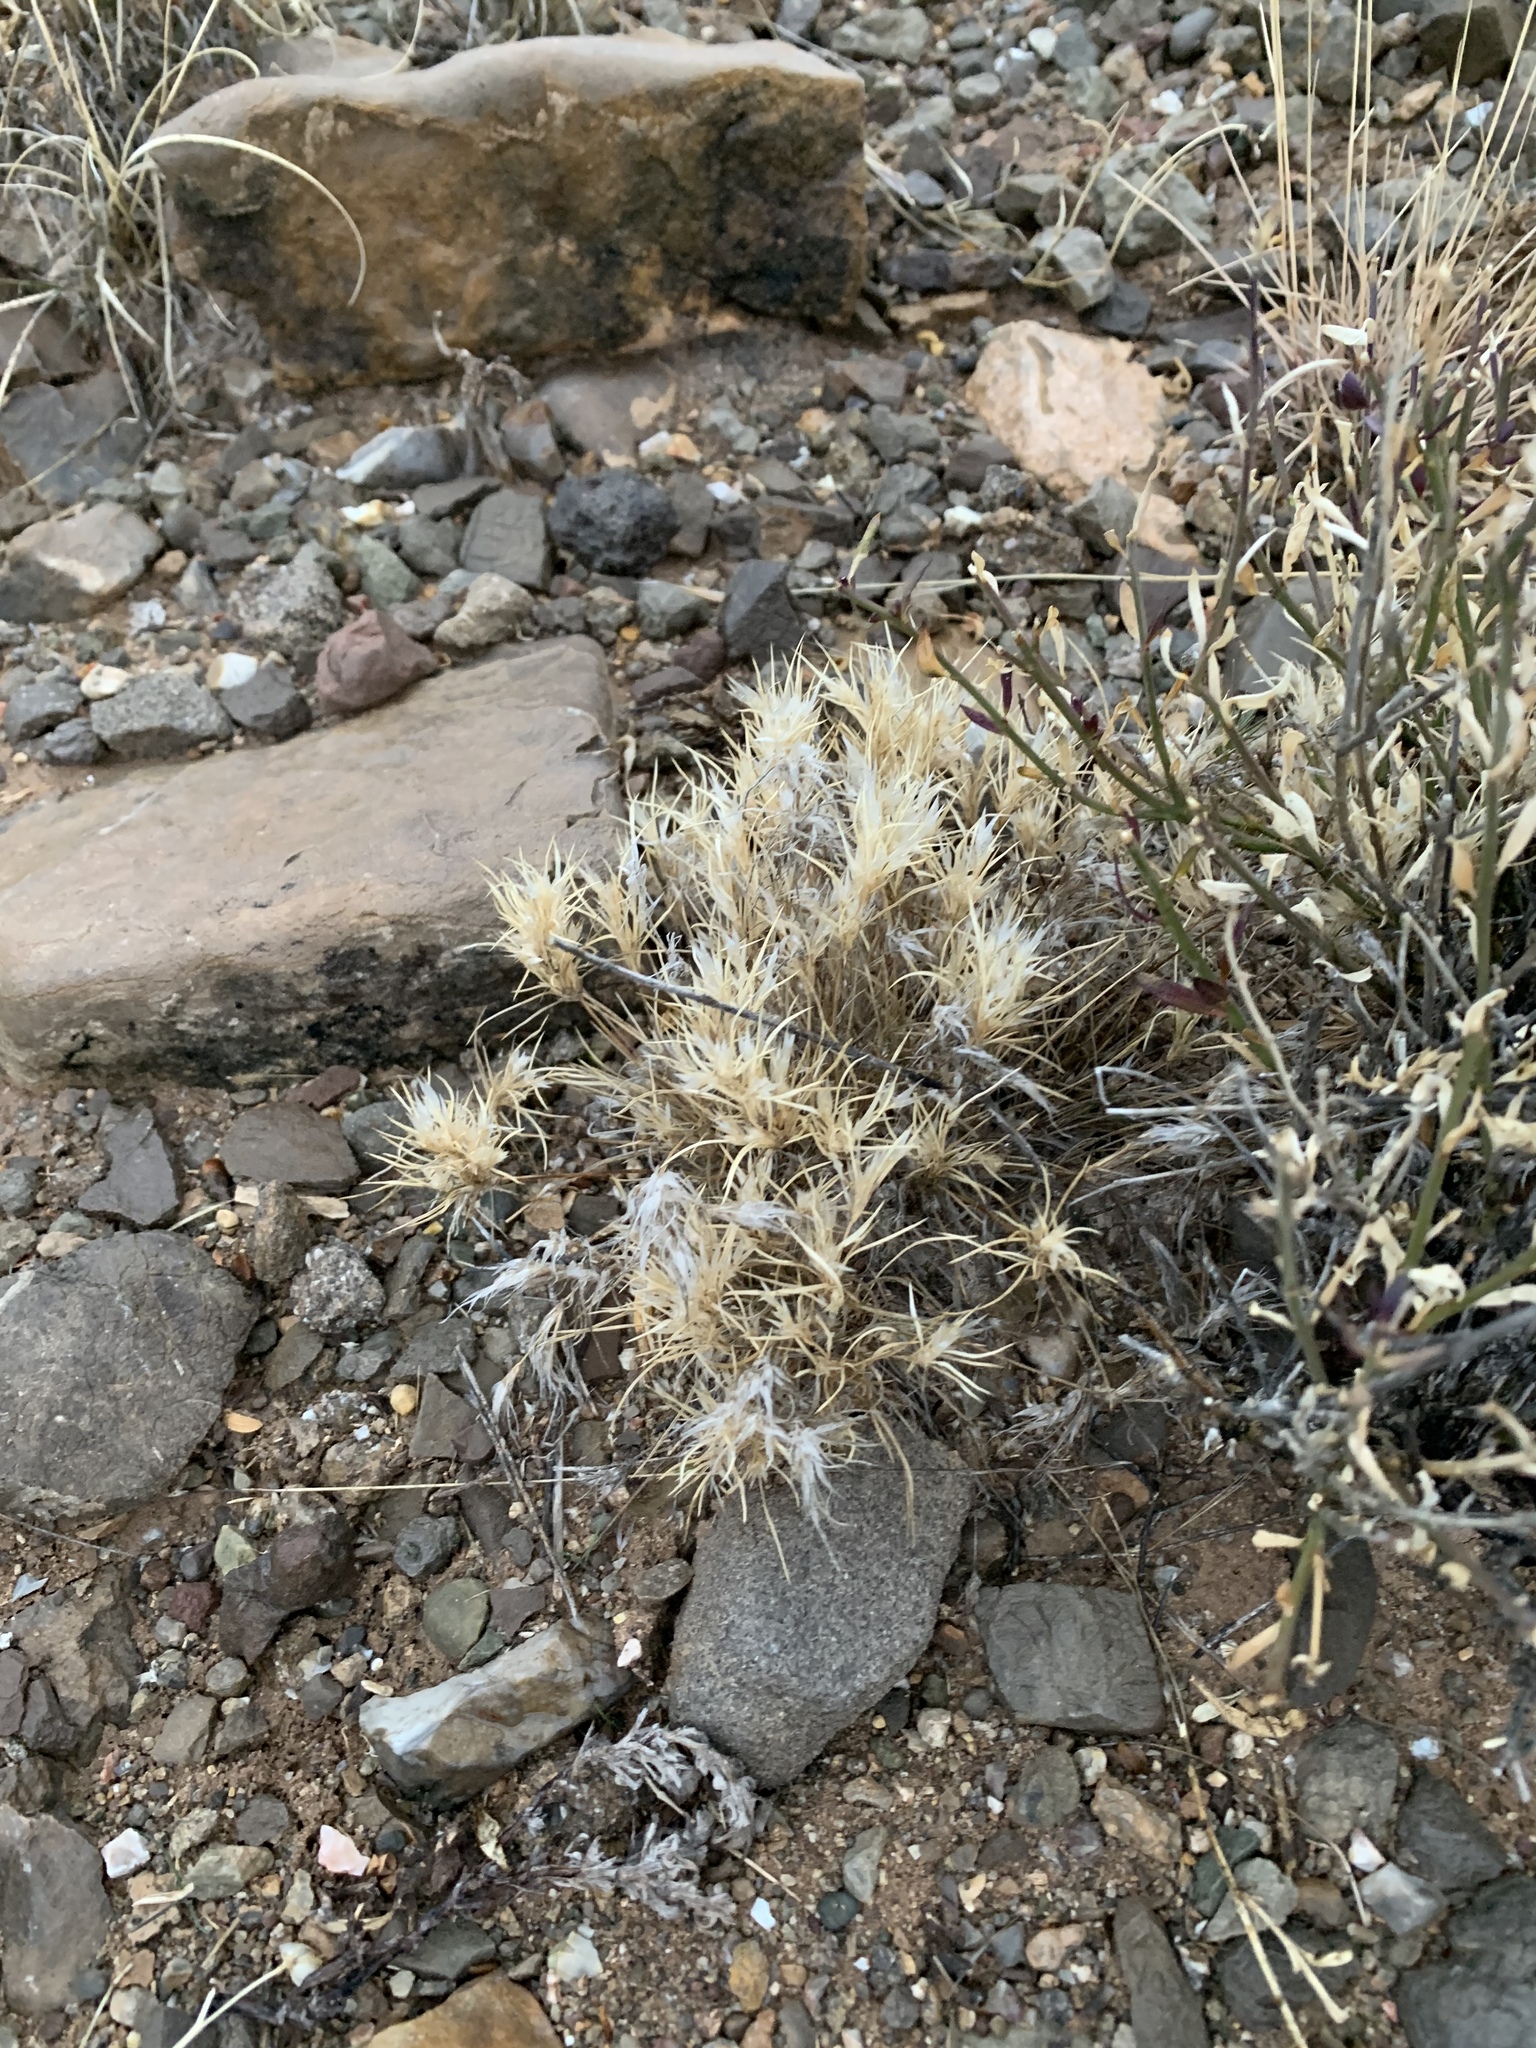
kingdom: Plantae
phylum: Tracheophyta
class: Liliopsida
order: Poales
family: Poaceae
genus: Dasyochloa
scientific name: Dasyochloa pulchella
